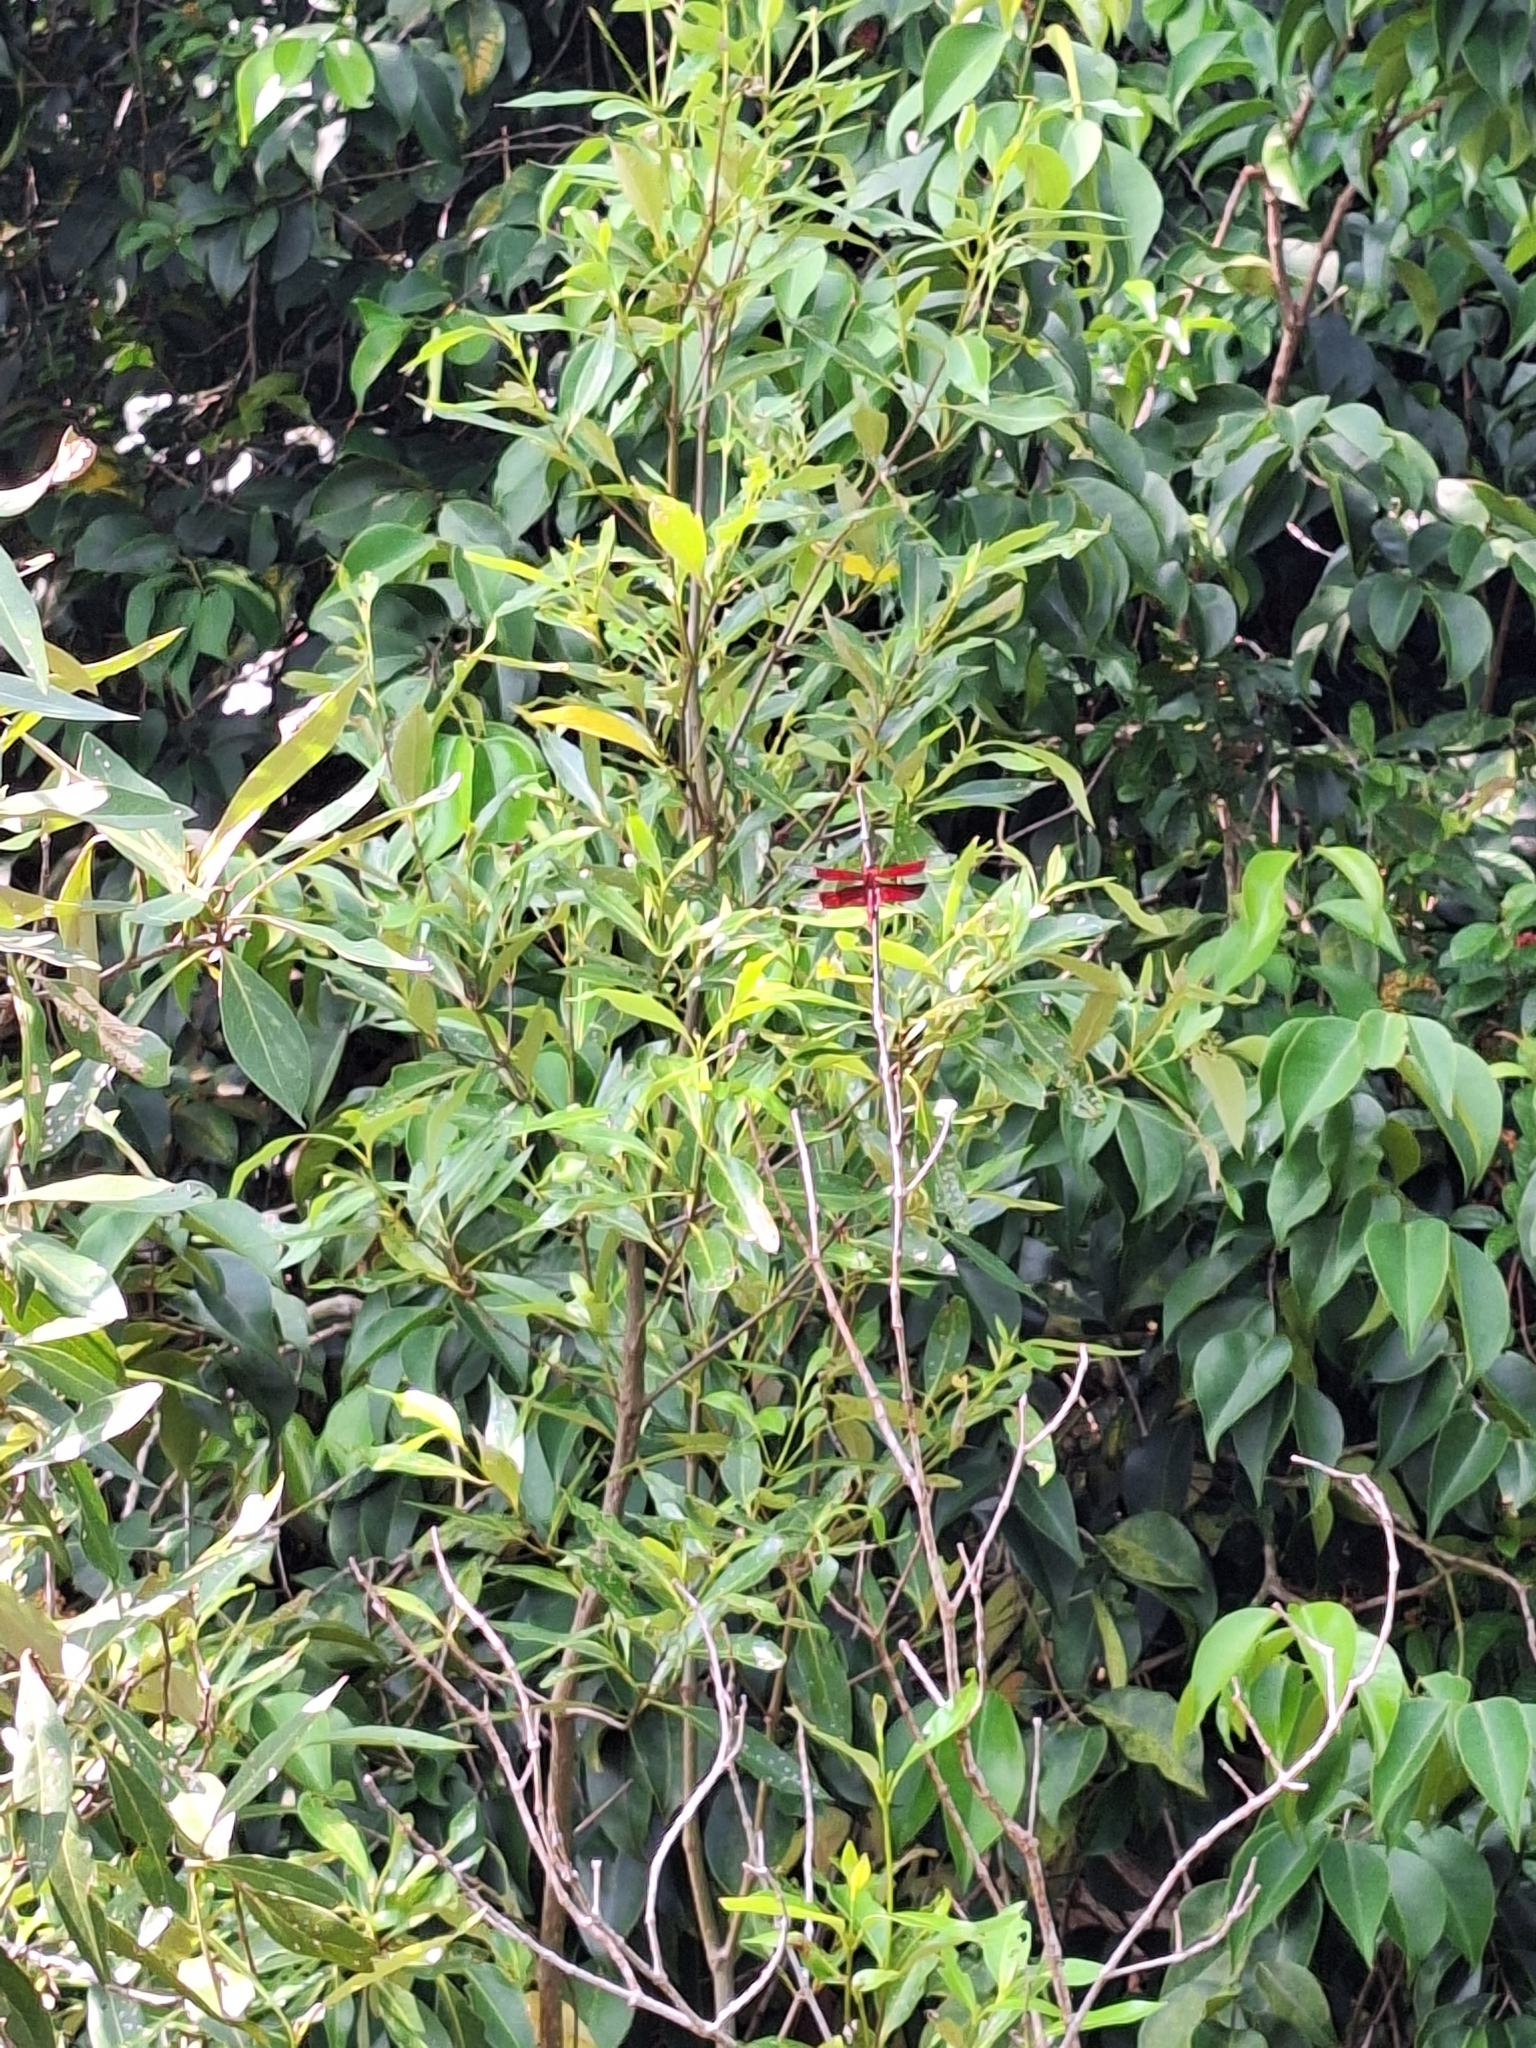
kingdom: Animalia
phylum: Arthropoda
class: Insecta
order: Odonata
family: Libellulidae
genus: Camacinia
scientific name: Camacinia gigantea
